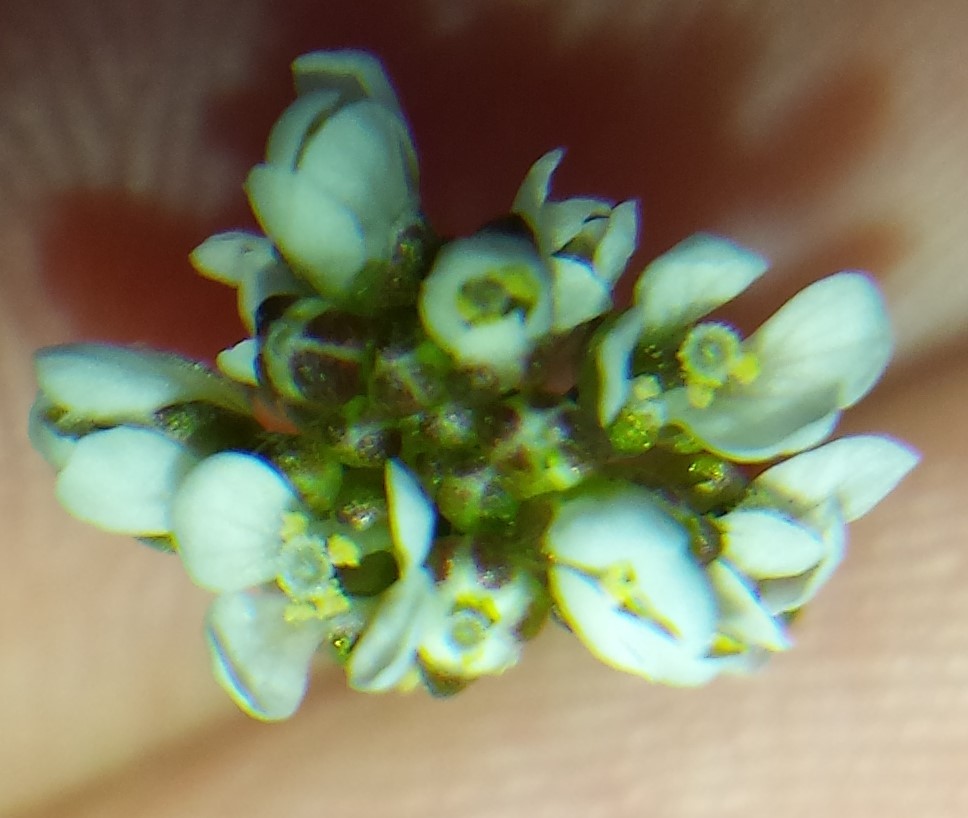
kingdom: Plantae
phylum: Tracheophyta
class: Magnoliopsida
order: Brassicales
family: Brassicaceae
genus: Cardamine
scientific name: Cardamine hirsuta
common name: Hairy bittercress
